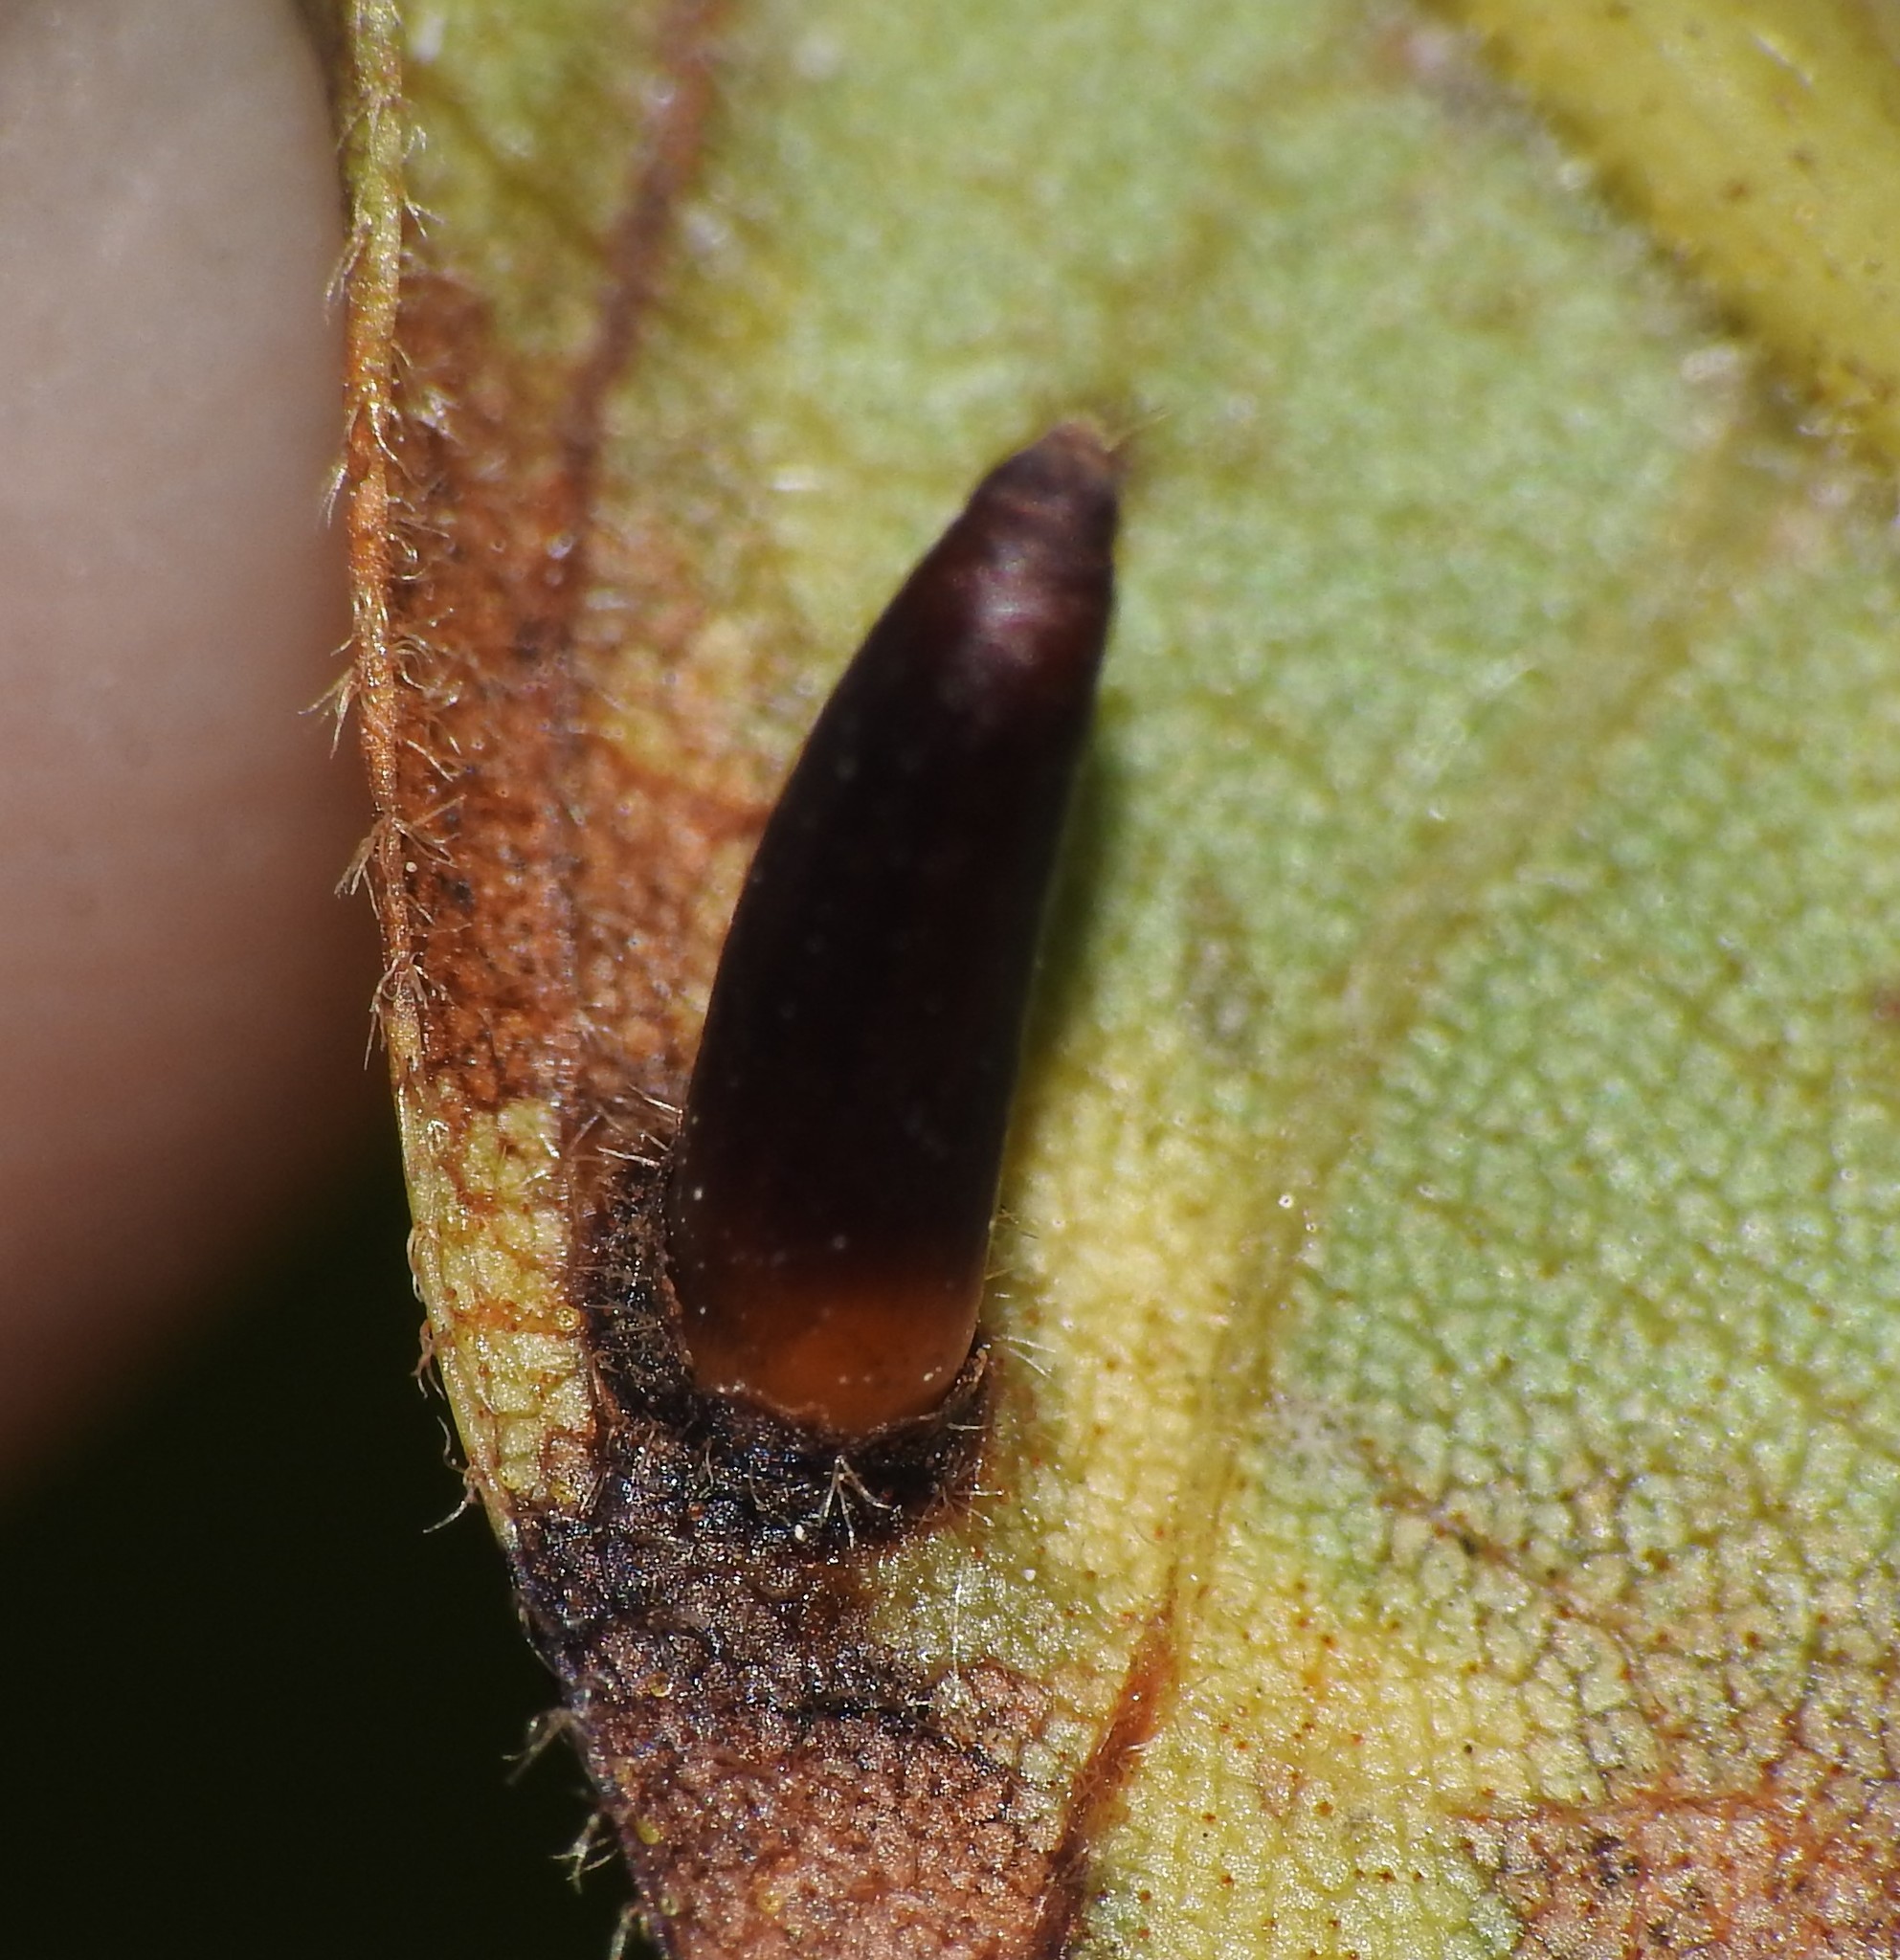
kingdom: Animalia
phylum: Arthropoda
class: Insecta
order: Diptera
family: Cecidomyiidae
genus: Caryomyia
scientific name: Caryomyia subulata
